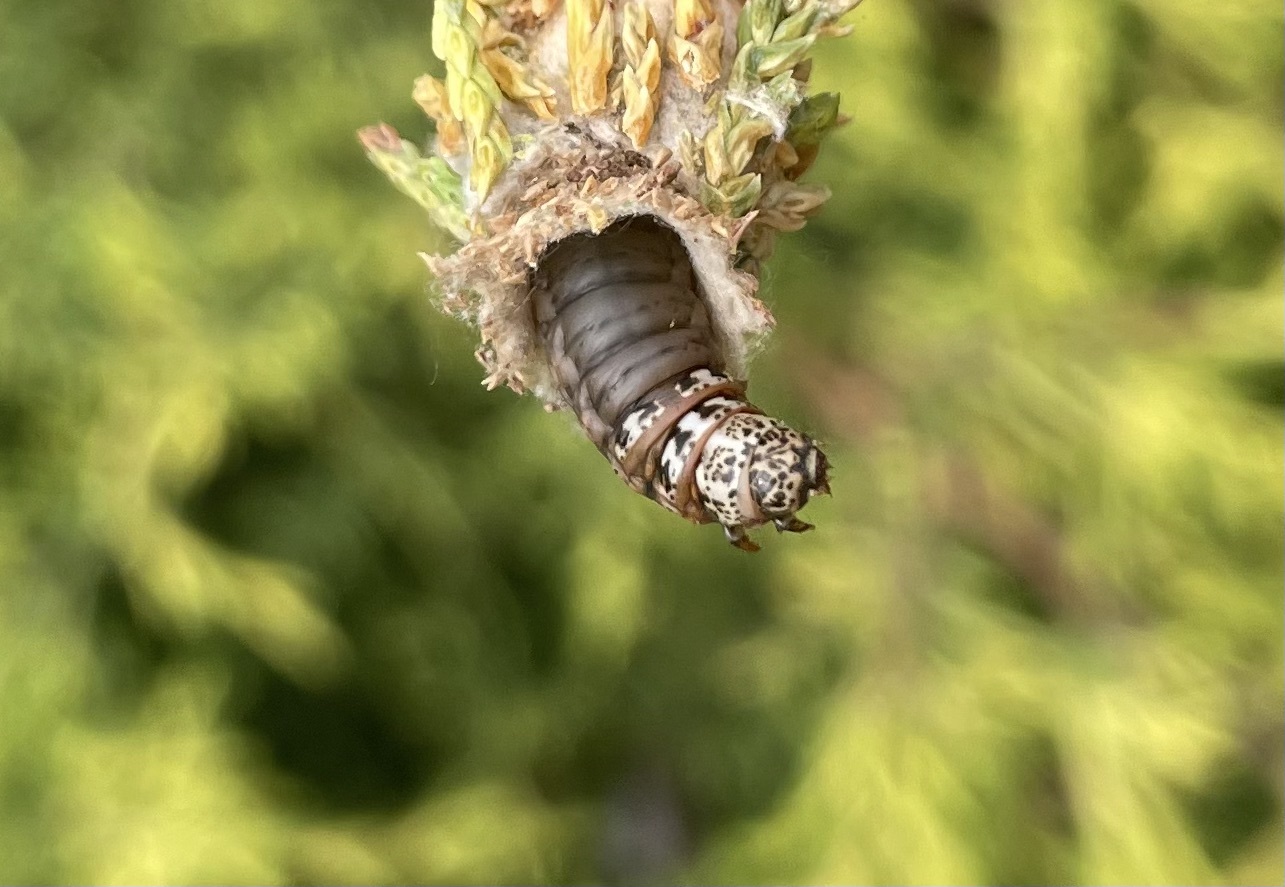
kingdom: Animalia
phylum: Arthropoda
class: Insecta
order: Lepidoptera
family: Psychidae
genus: Thyridopteryx
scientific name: Thyridopteryx ephemeraeformis
